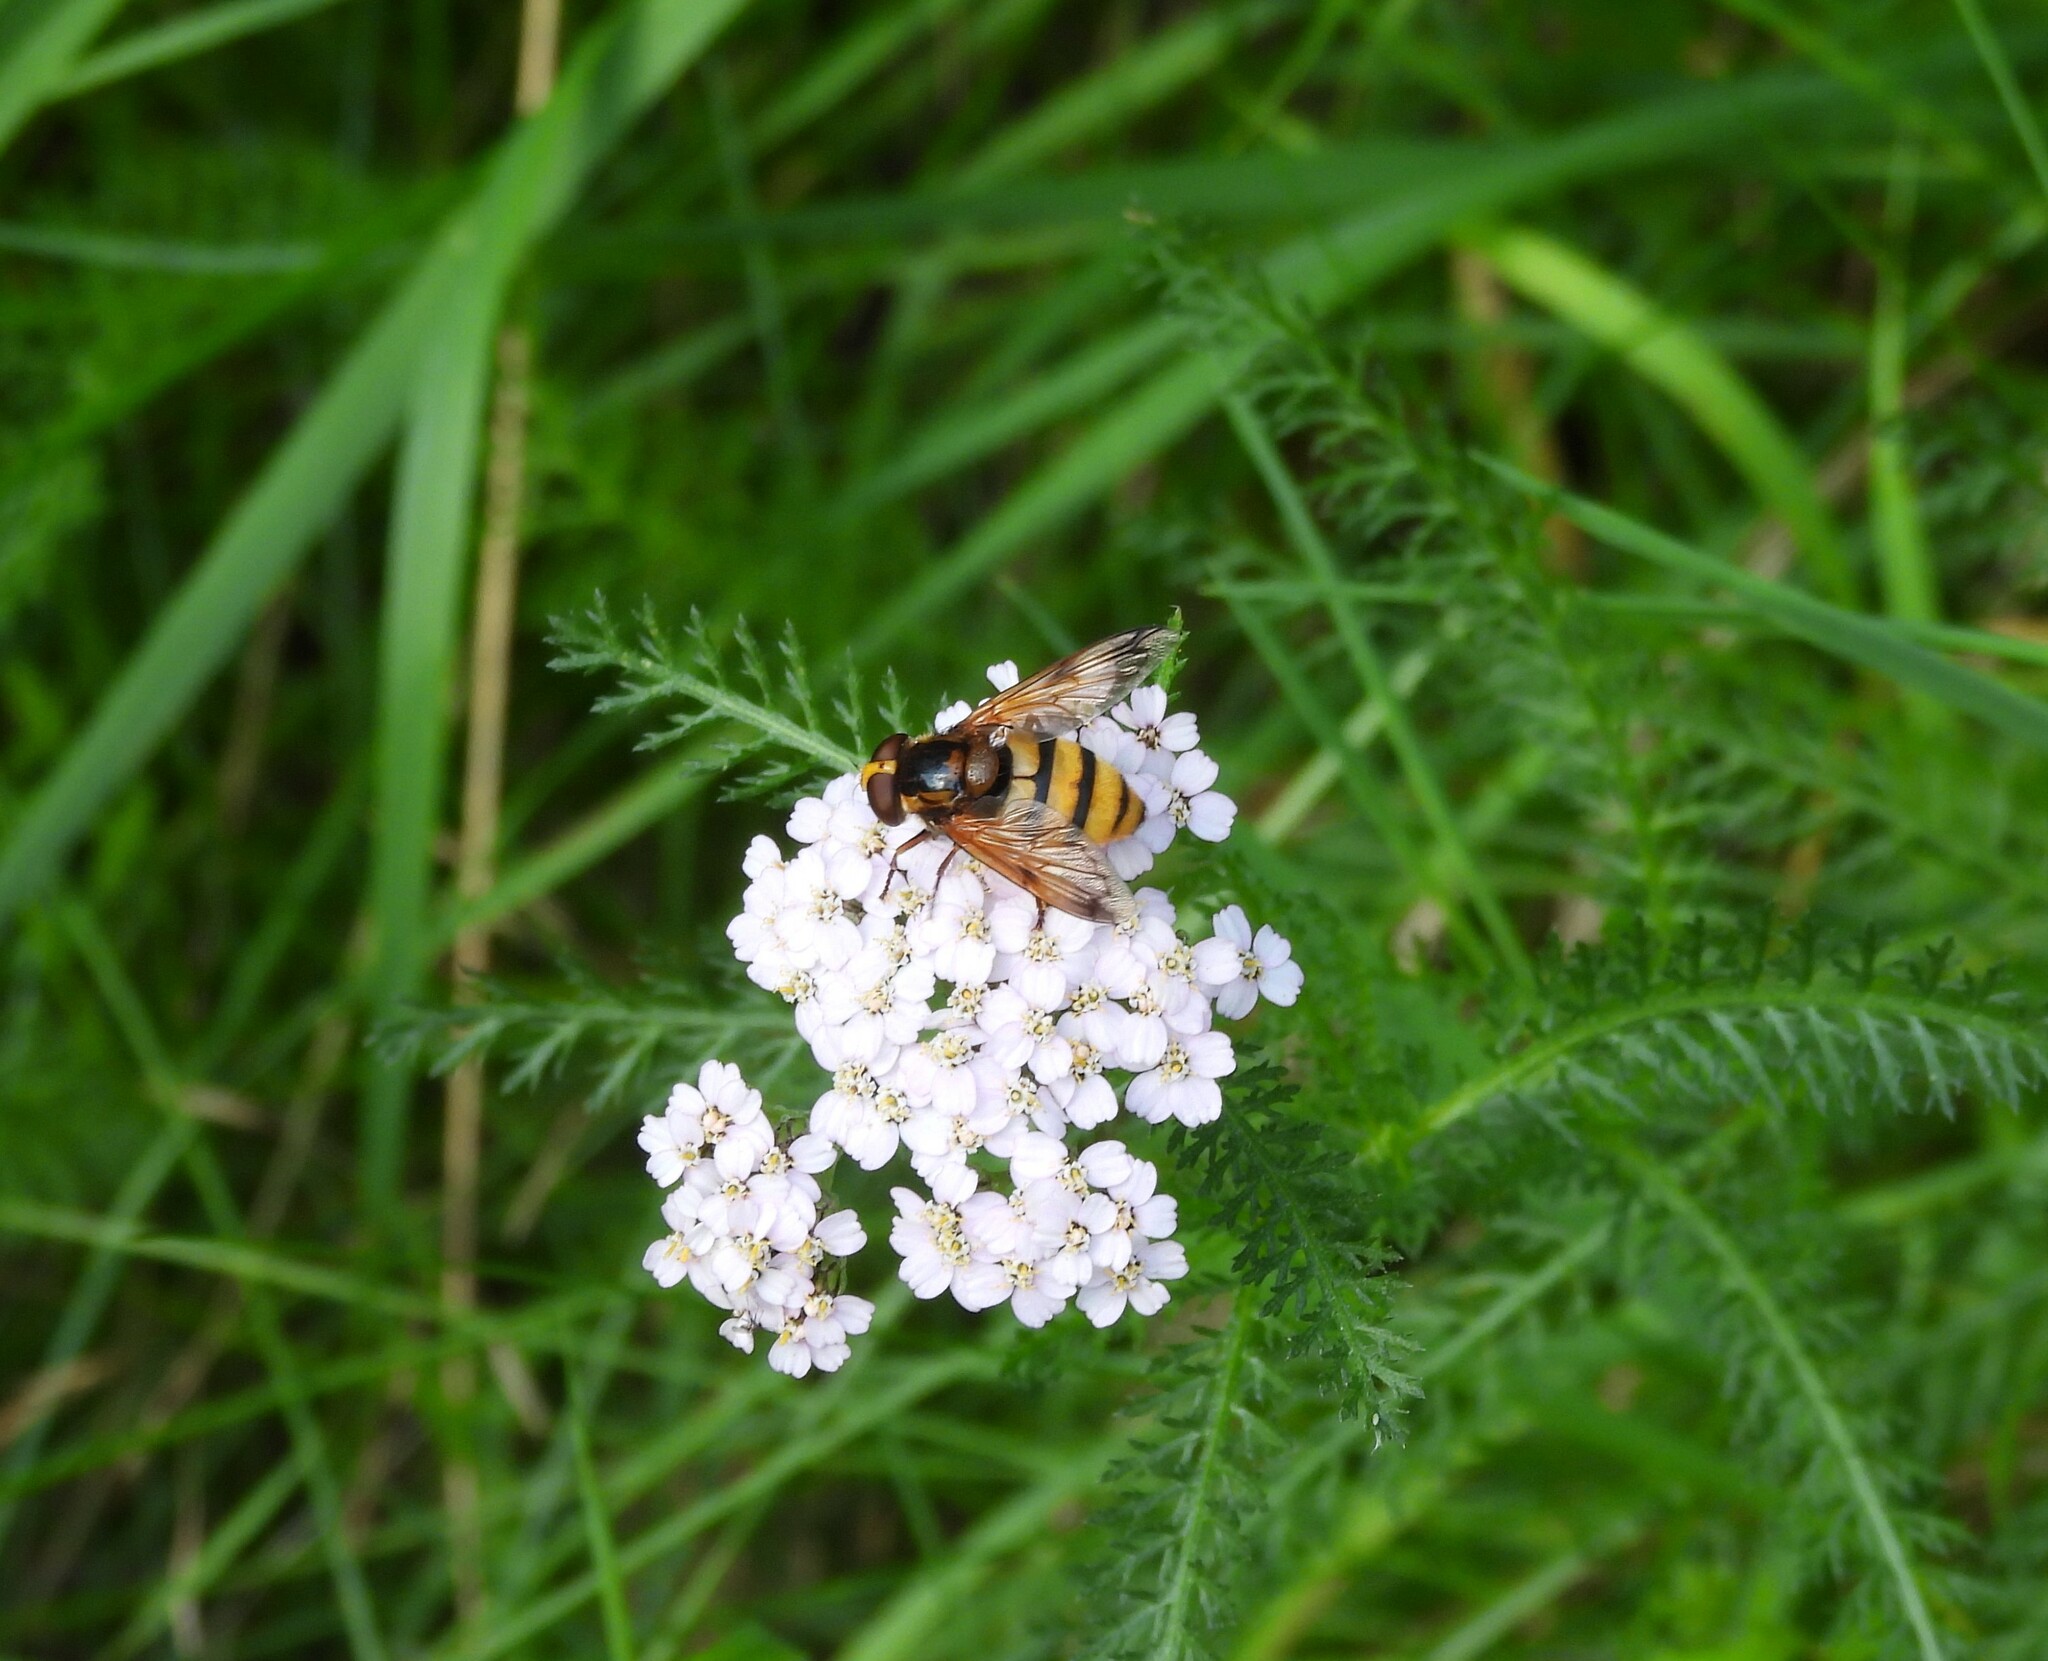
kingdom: Animalia
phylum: Arthropoda
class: Insecta
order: Diptera
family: Syrphidae
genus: Volucella
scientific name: Volucella inanis
